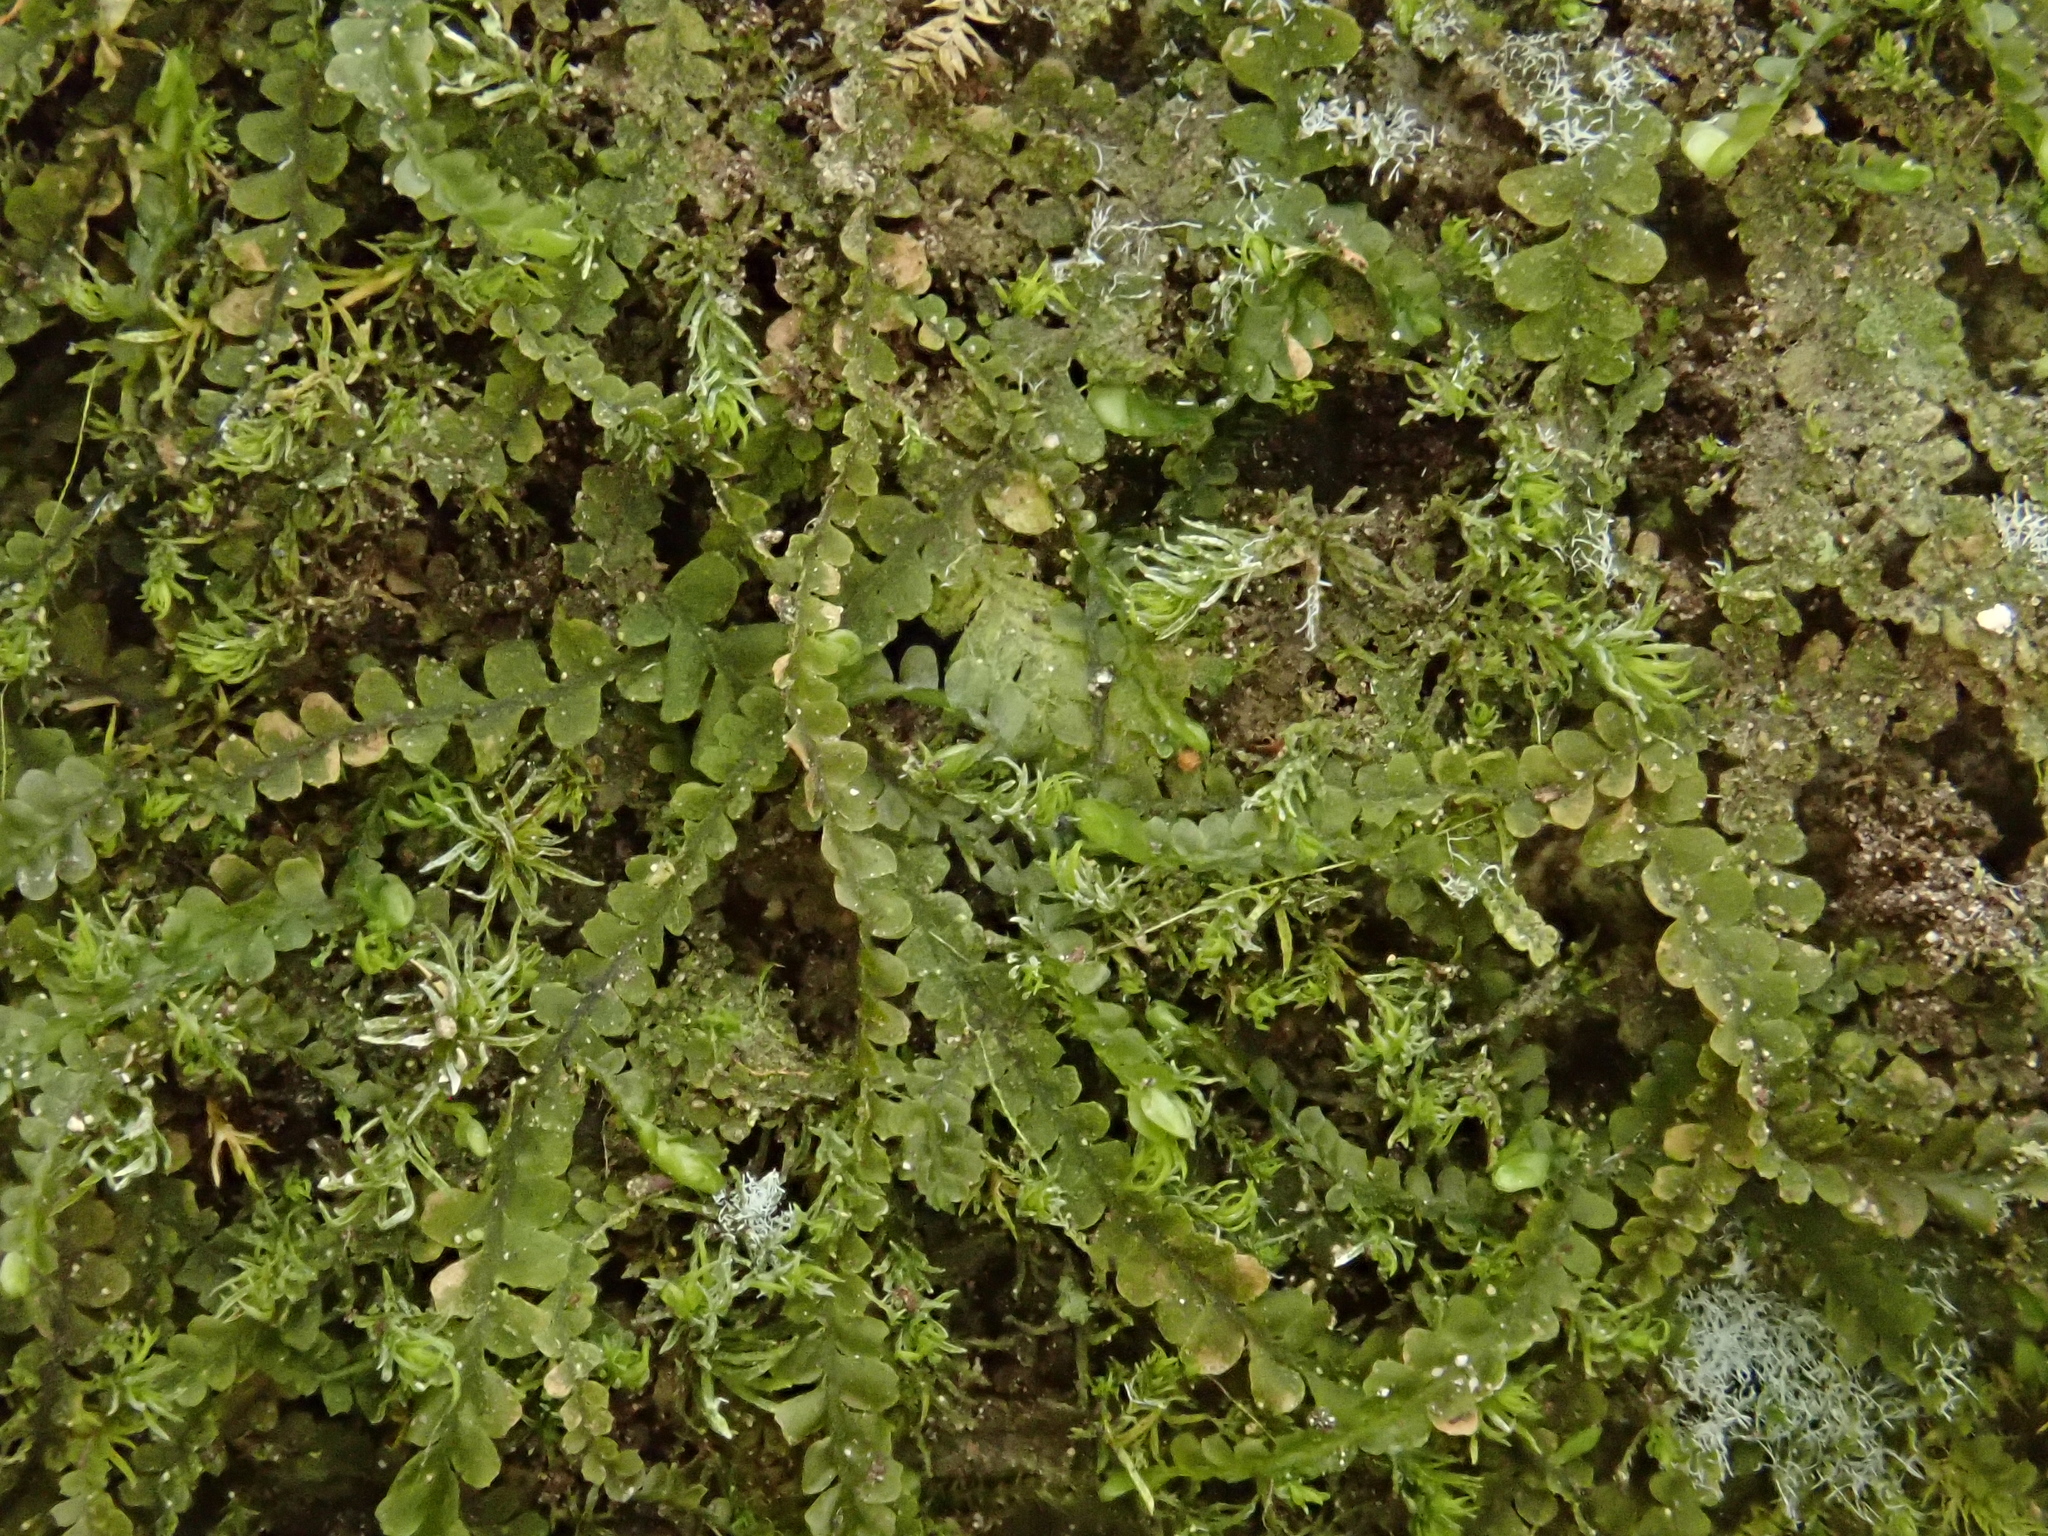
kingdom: Plantae
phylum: Marchantiophyta
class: Jungermanniopsida
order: Jungermanniales
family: Plagiochilaceae
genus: Pedinophyllum
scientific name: Pedinophyllum interruptum
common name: Craven featherwort
